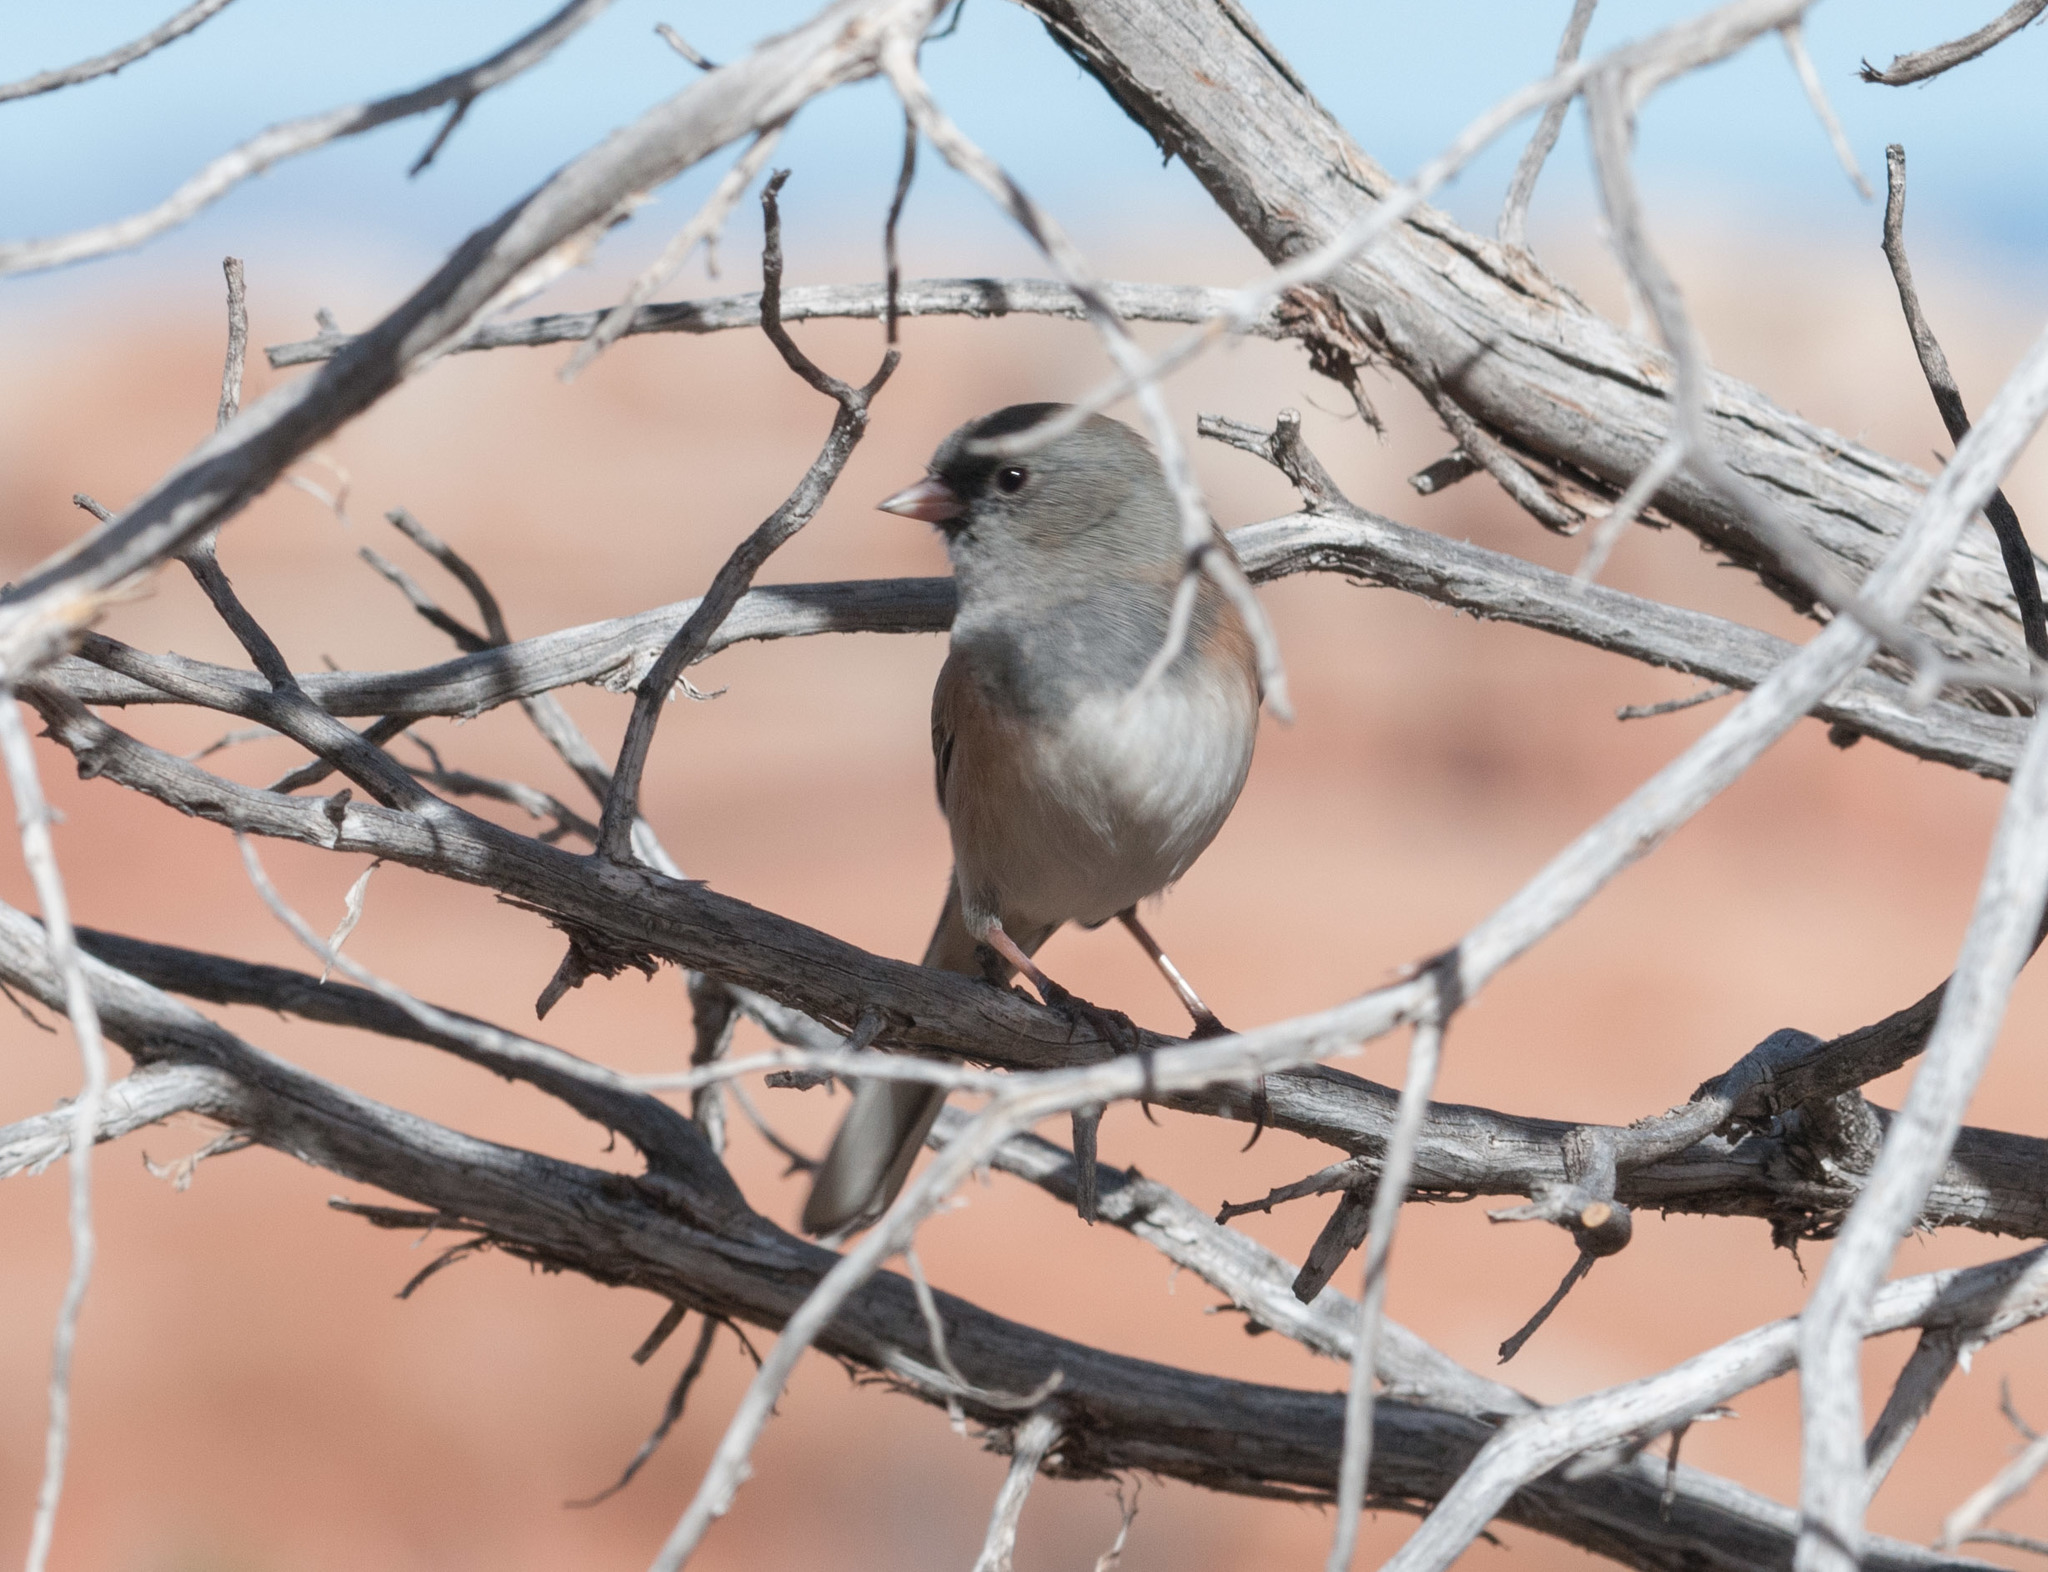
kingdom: Animalia
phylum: Chordata
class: Aves
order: Passeriformes
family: Passerellidae
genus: Junco
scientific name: Junco hyemalis
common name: Dark-eyed junco
